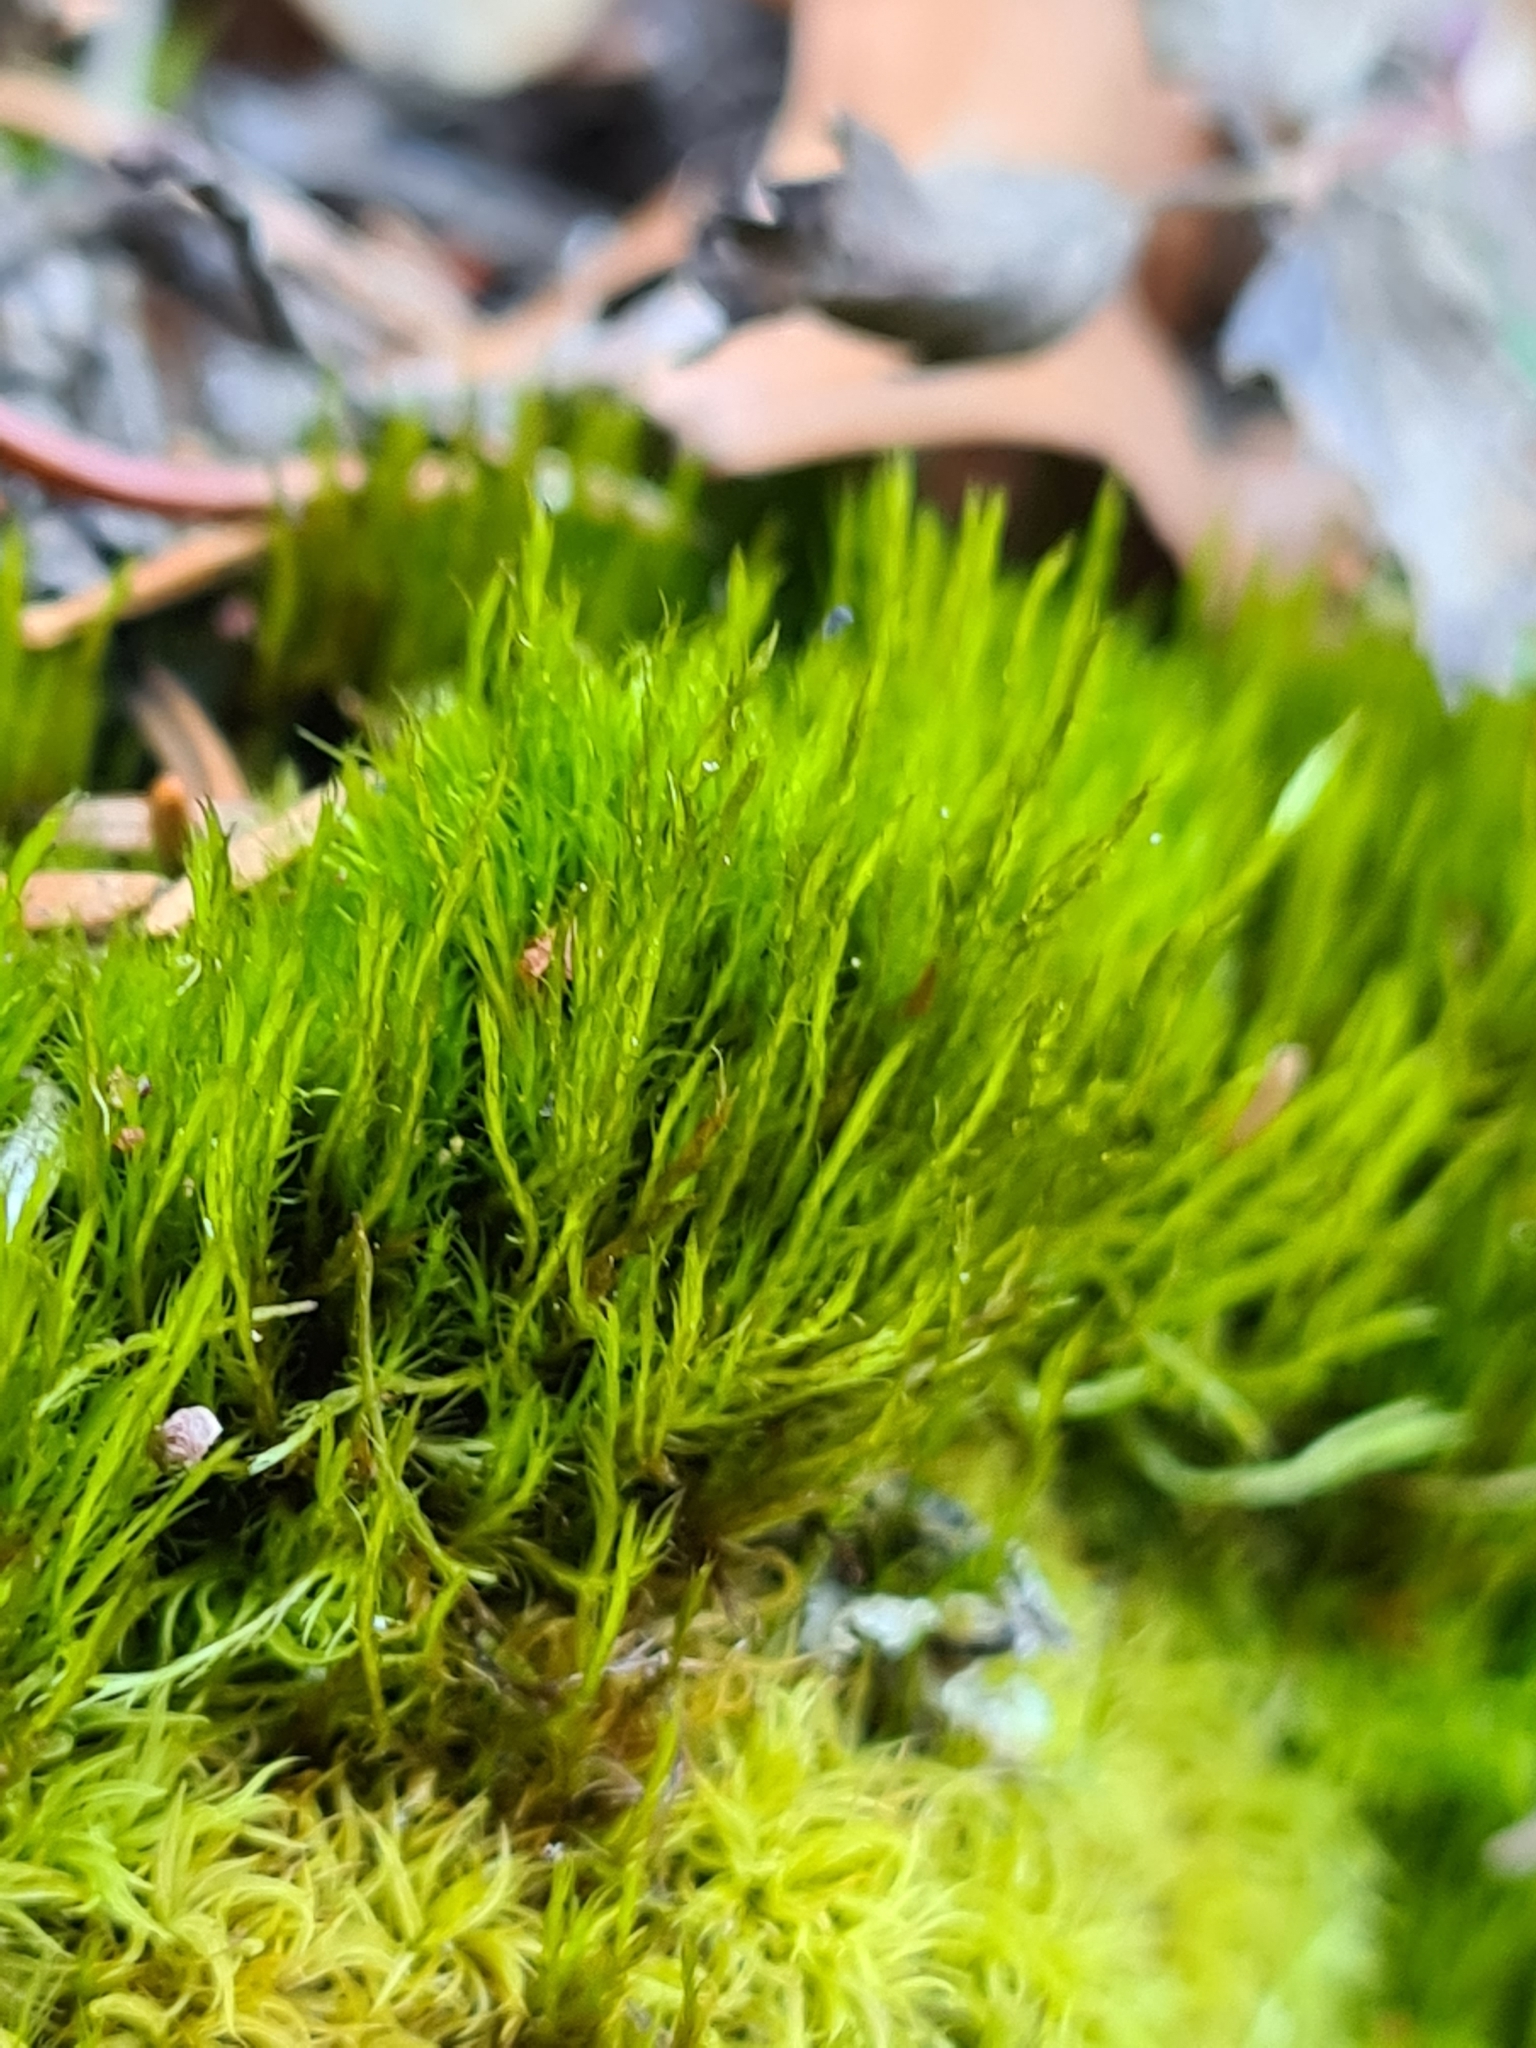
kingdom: Plantae
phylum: Bryophyta
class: Bryopsida
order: Scouleriales
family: Flexitrichaceae
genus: Flexitrichum
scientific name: Flexitrichum flexicaule
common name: Bendy ditrichum
